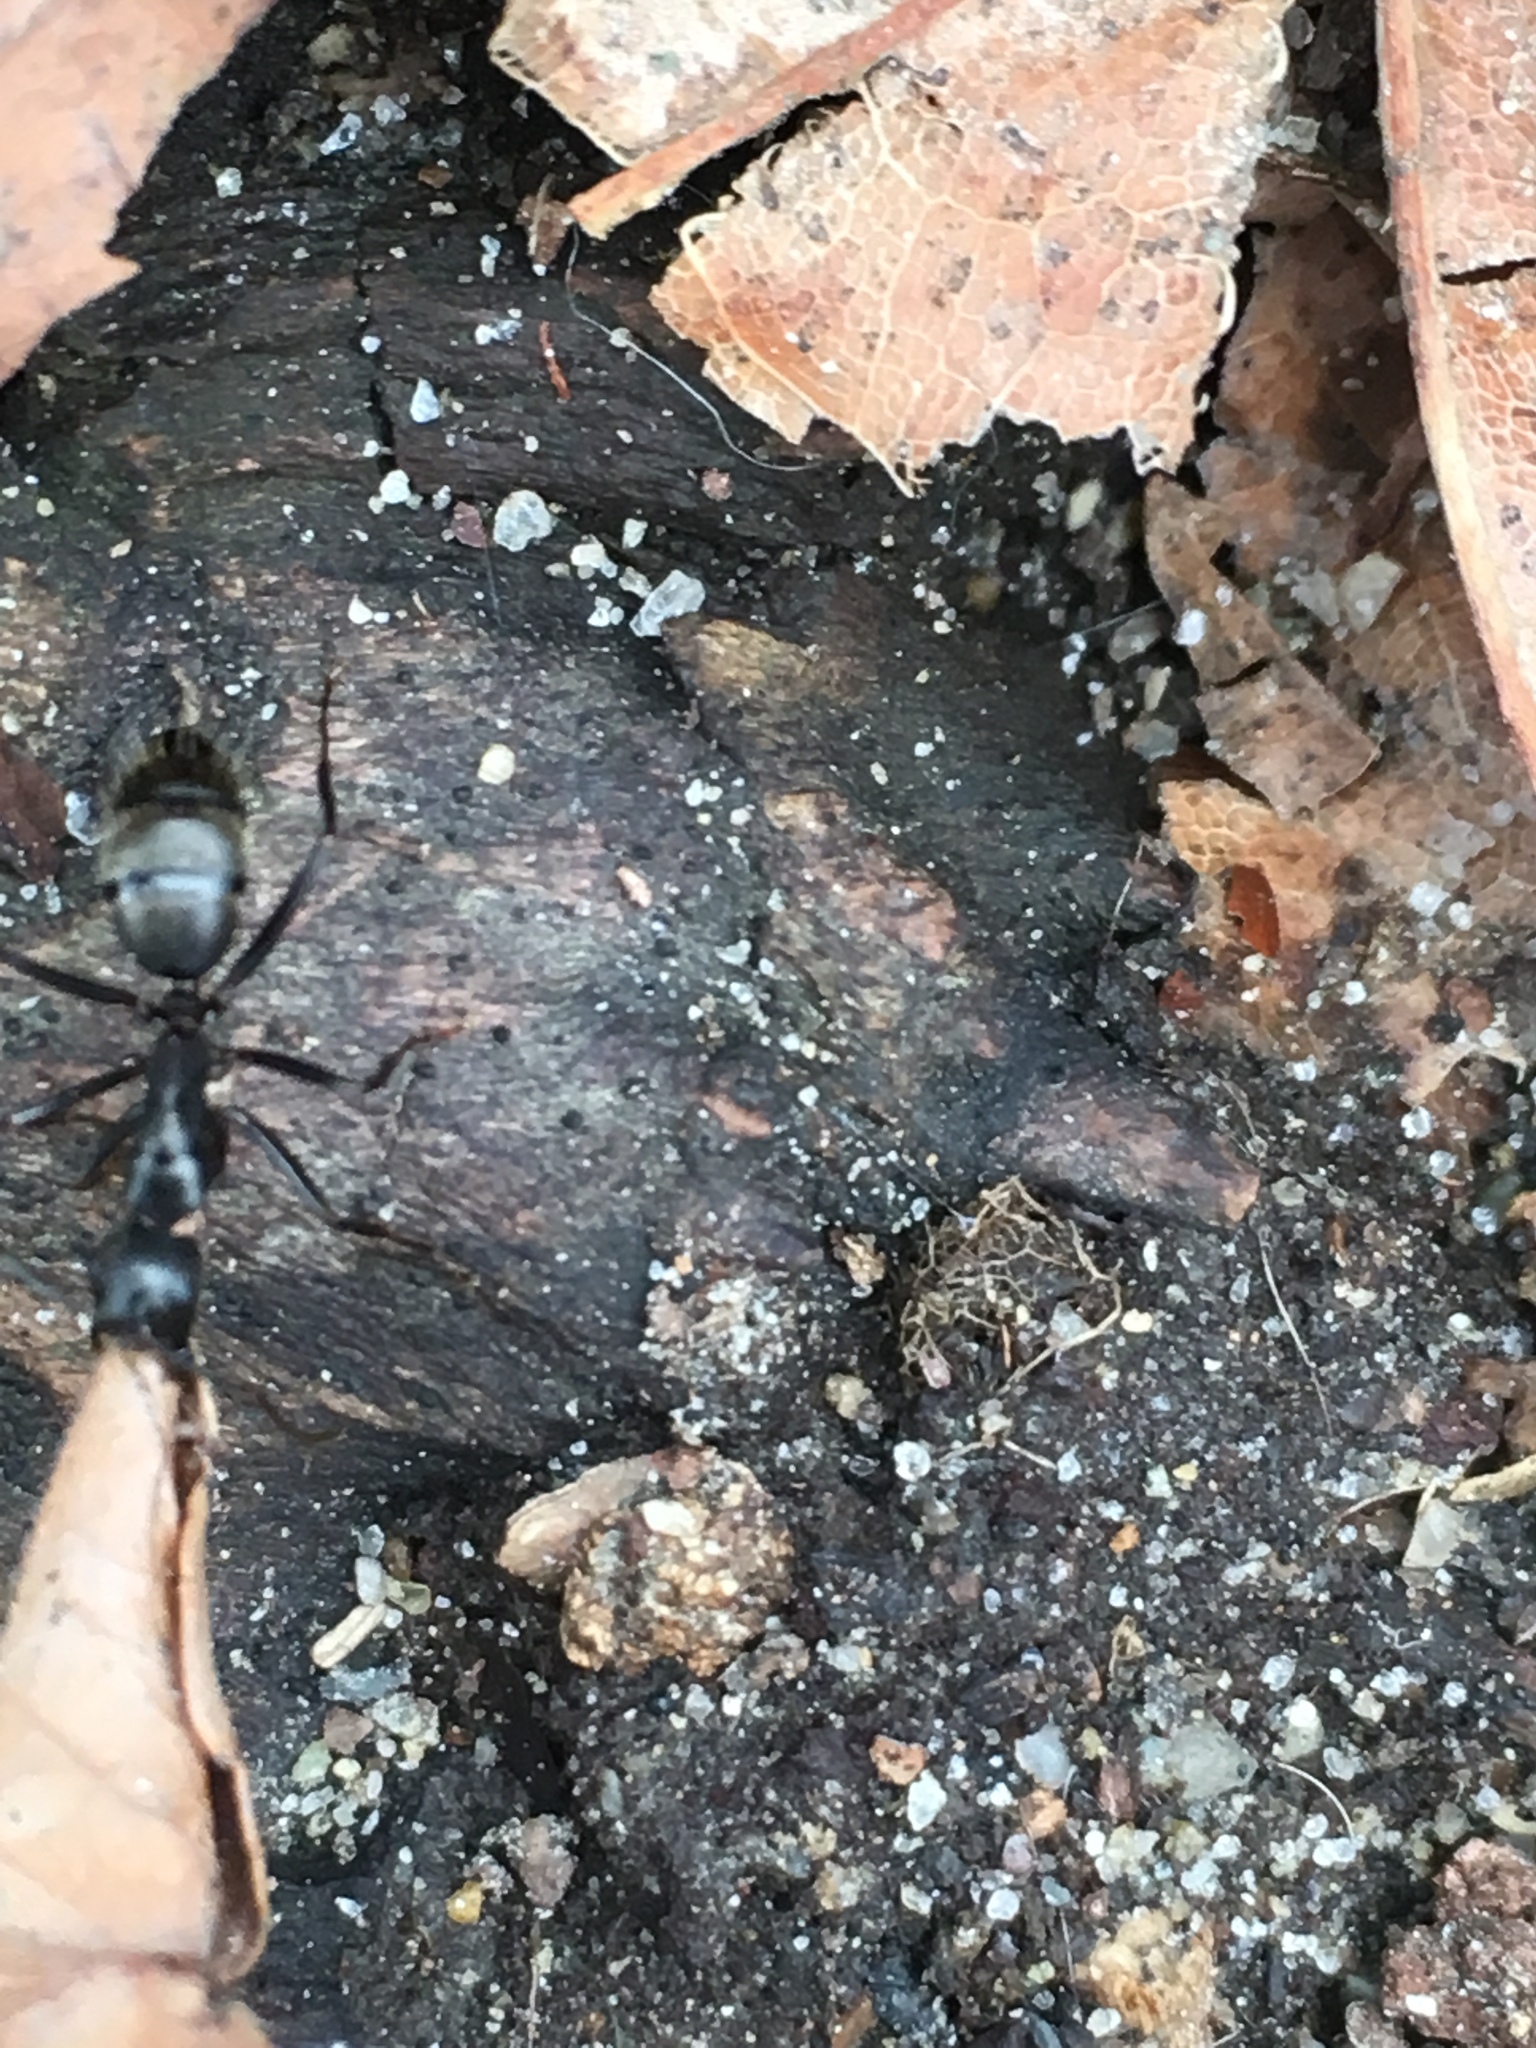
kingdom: Animalia
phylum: Arthropoda
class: Insecta
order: Hymenoptera
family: Formicidae
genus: Camponotus
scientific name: Camponotus pennsylvanicus
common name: Black carpenter ant
